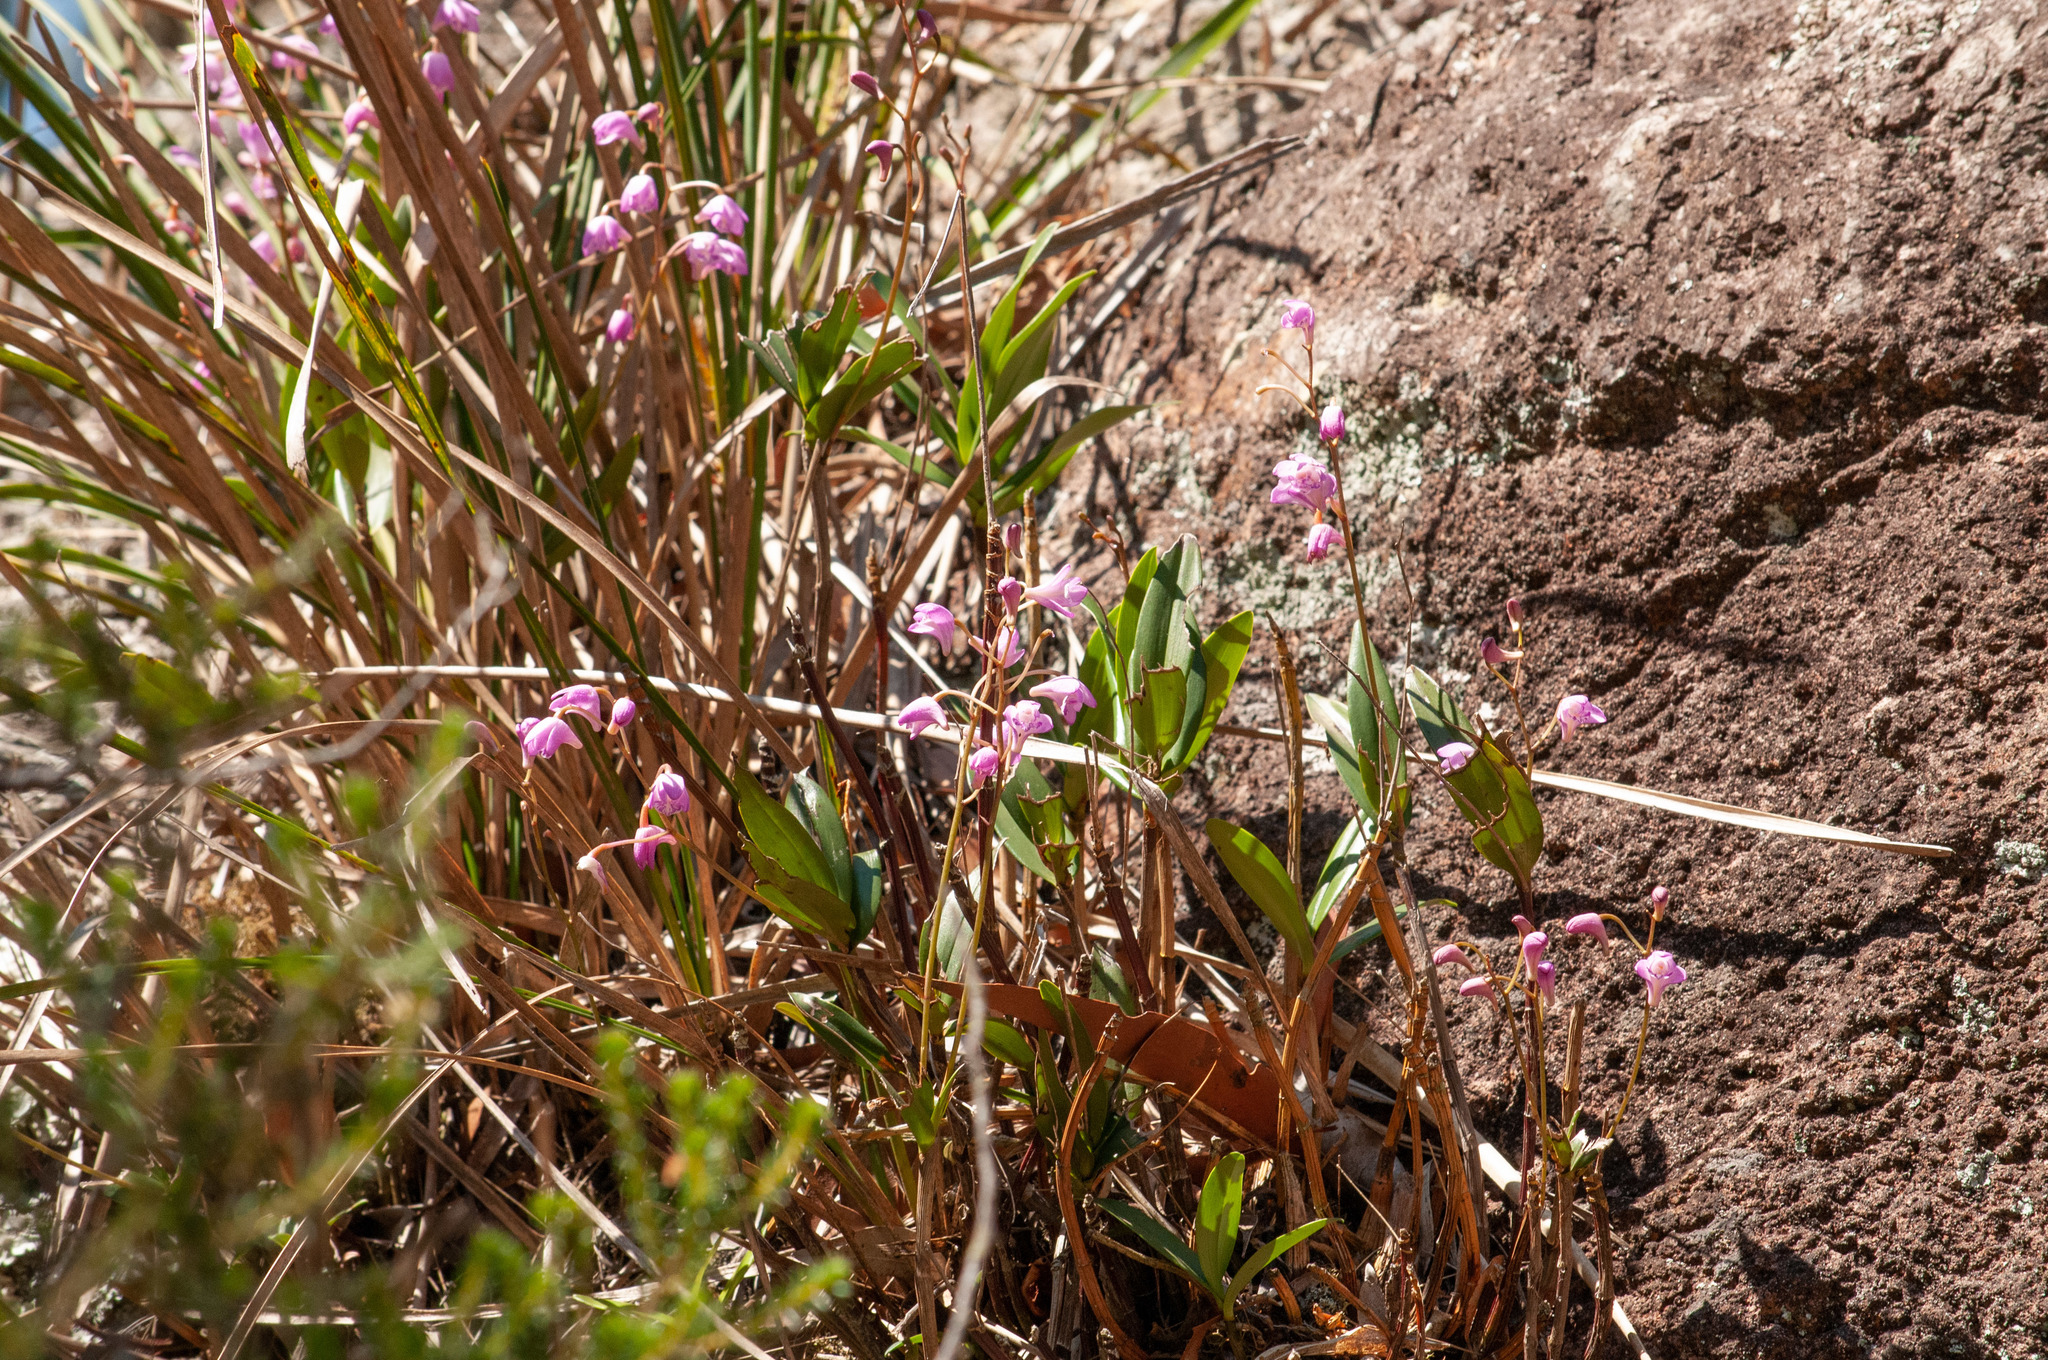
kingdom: Plantae
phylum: Tracheophyta
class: Liliopsida
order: Asparagales
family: Orchidaceae
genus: Dendrobium
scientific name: Dendrobium kingianum
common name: Pink rock orchid
